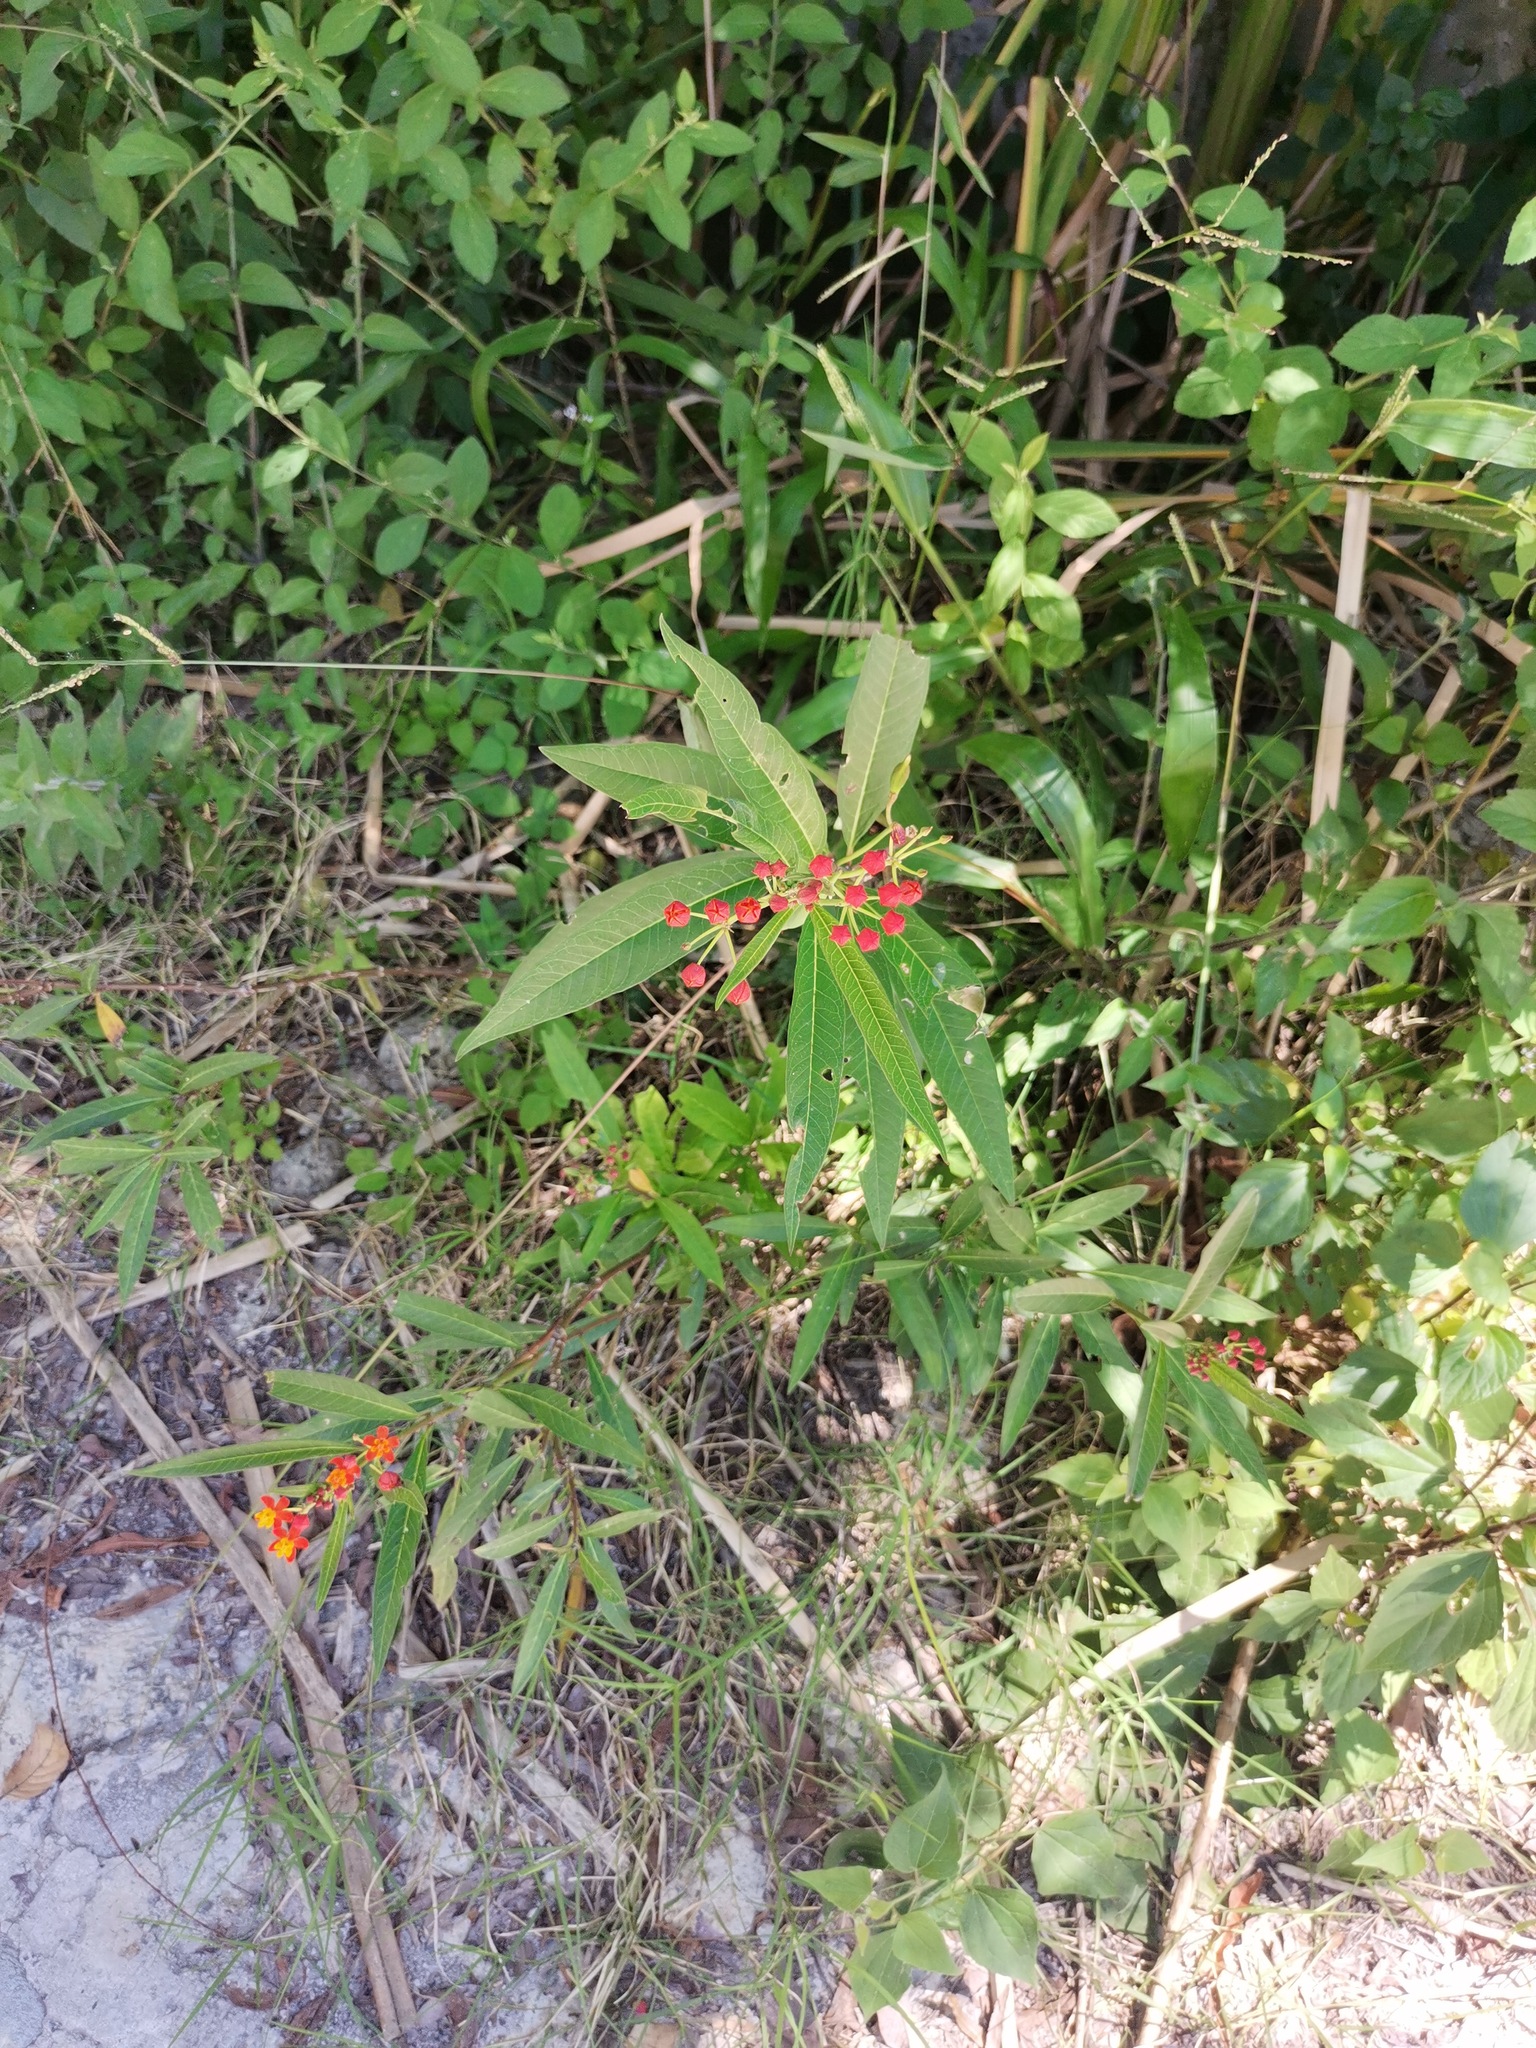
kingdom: Plantae
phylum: Tracheophyta
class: Magnoliopsida
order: Gentianales
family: Apocynaceae
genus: Asclepias
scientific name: Asclepias curassavica
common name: Bloodflower
